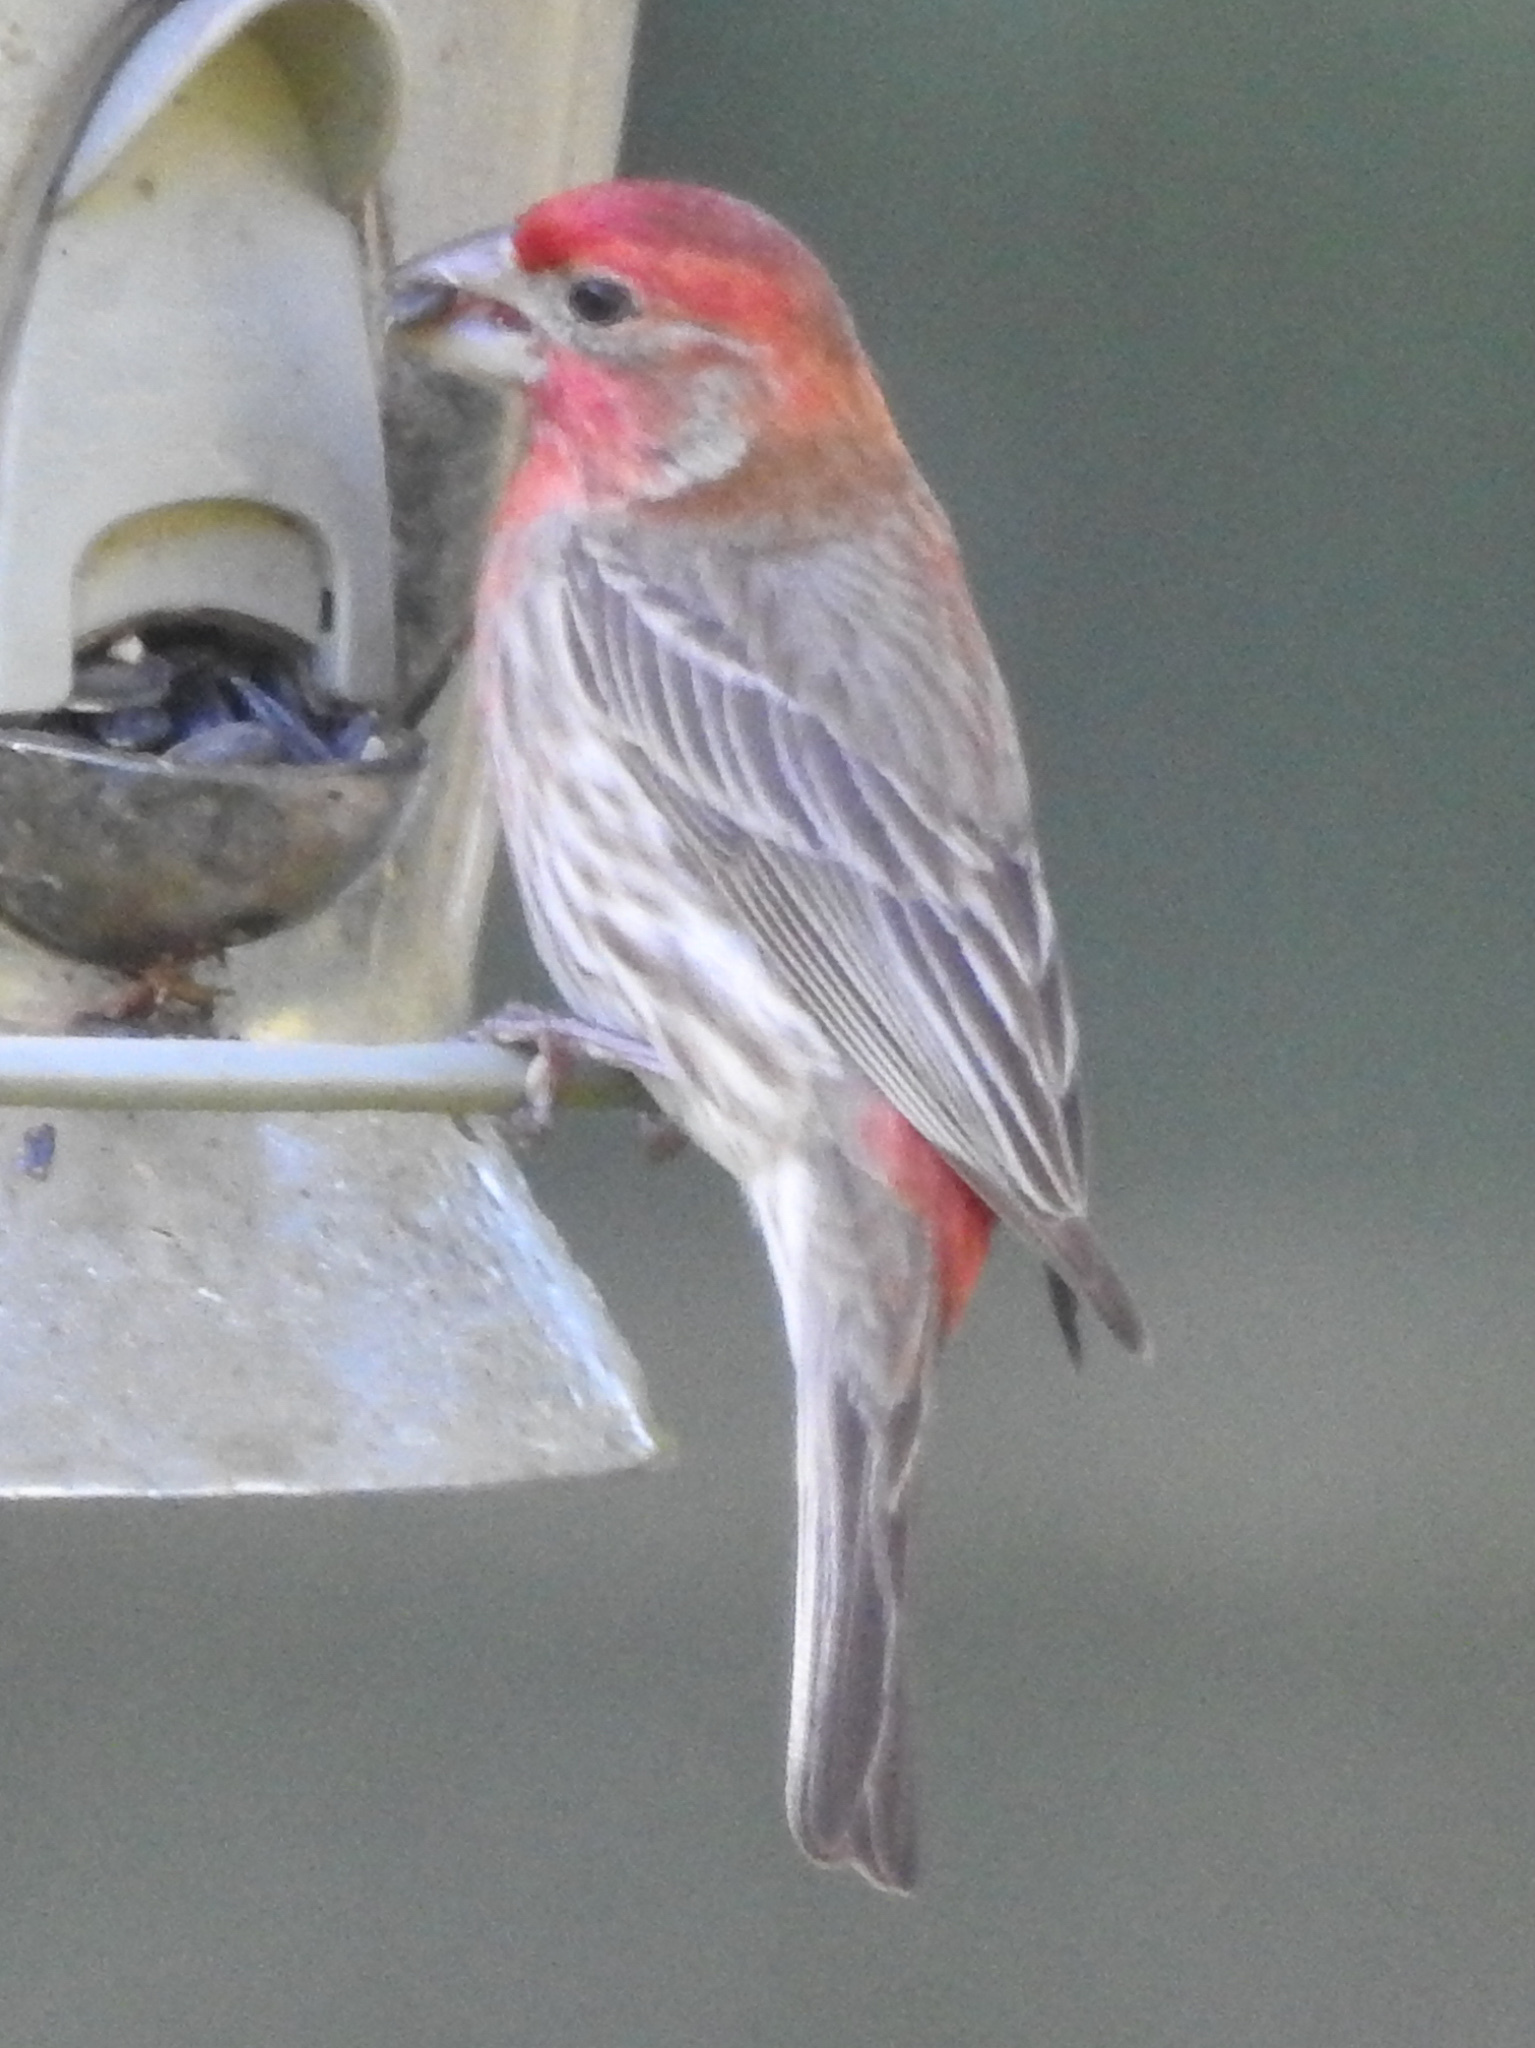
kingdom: Animalia
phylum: Chordata
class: Aves
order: Passeriformes
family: Fringillidae
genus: Haemorhous
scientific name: Haemorhous mexicanus
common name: House finch
